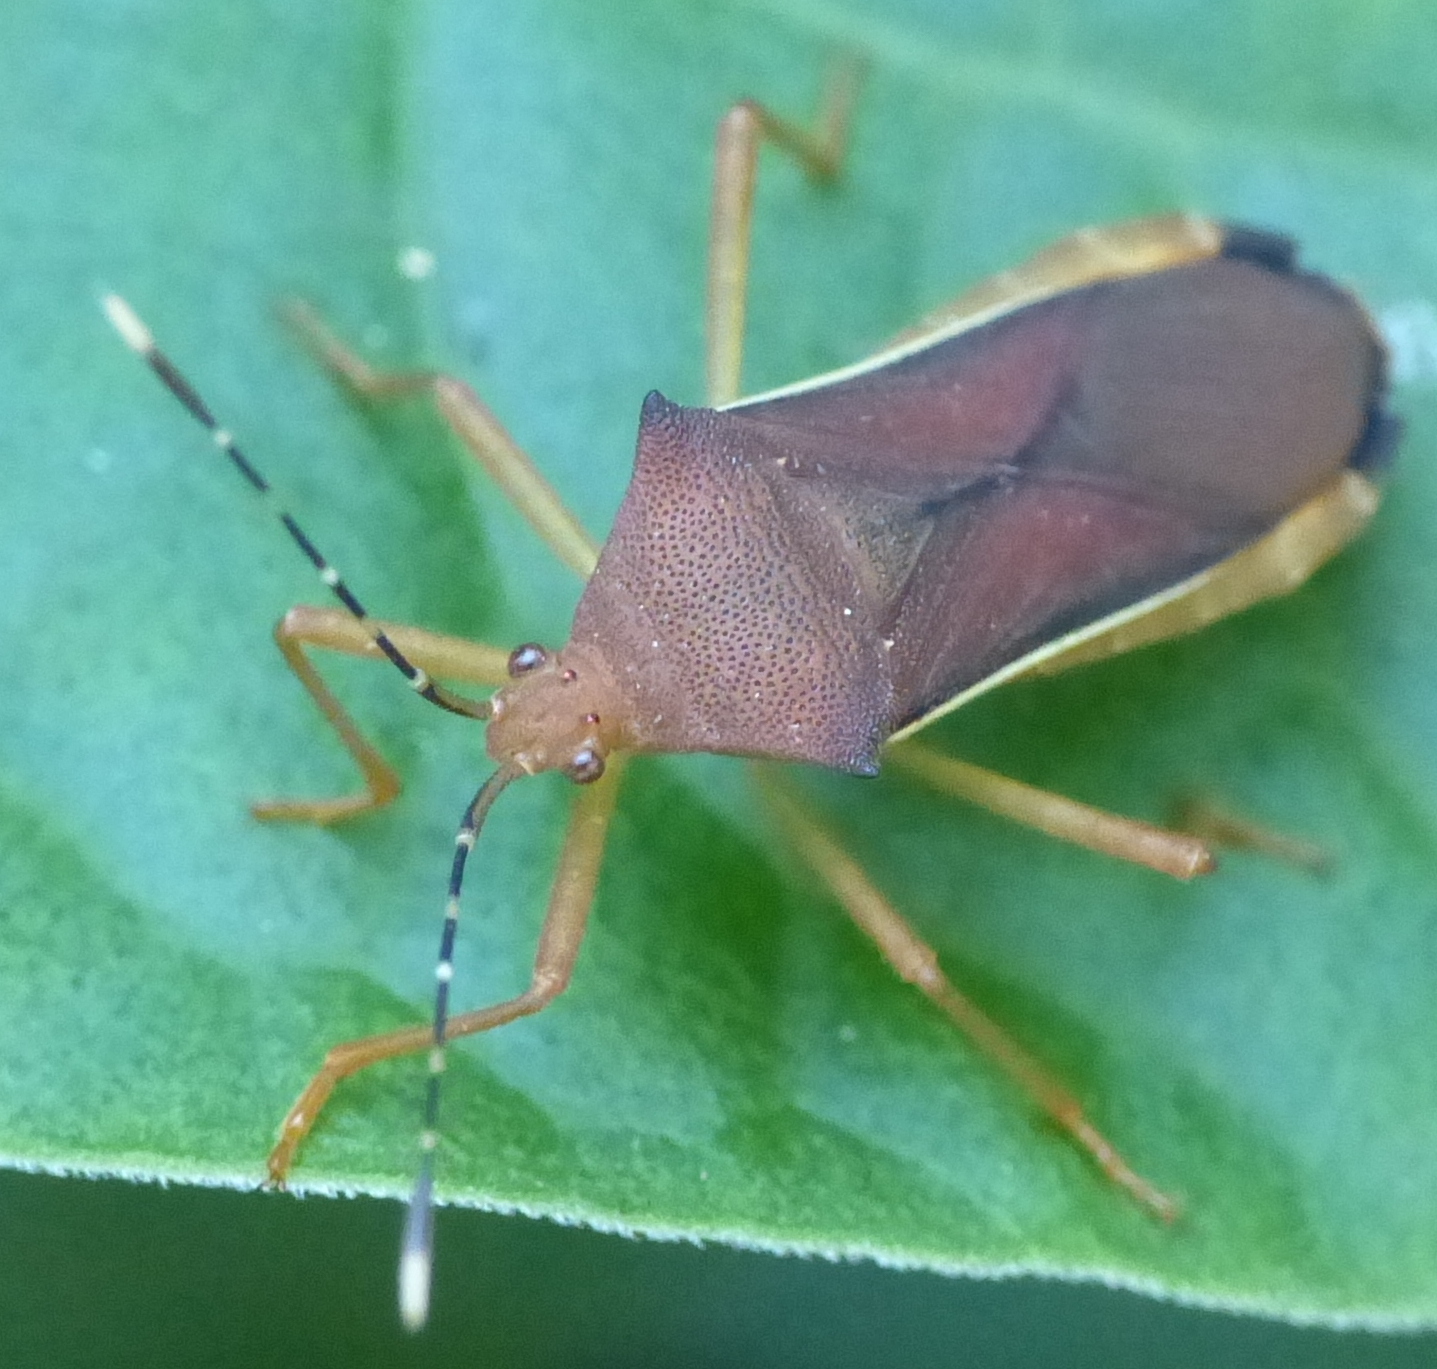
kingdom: Animalia
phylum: Arthropoda
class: Insecta
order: Hemiptera
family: Coreidae
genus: Anasa
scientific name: Anasa varicornis
